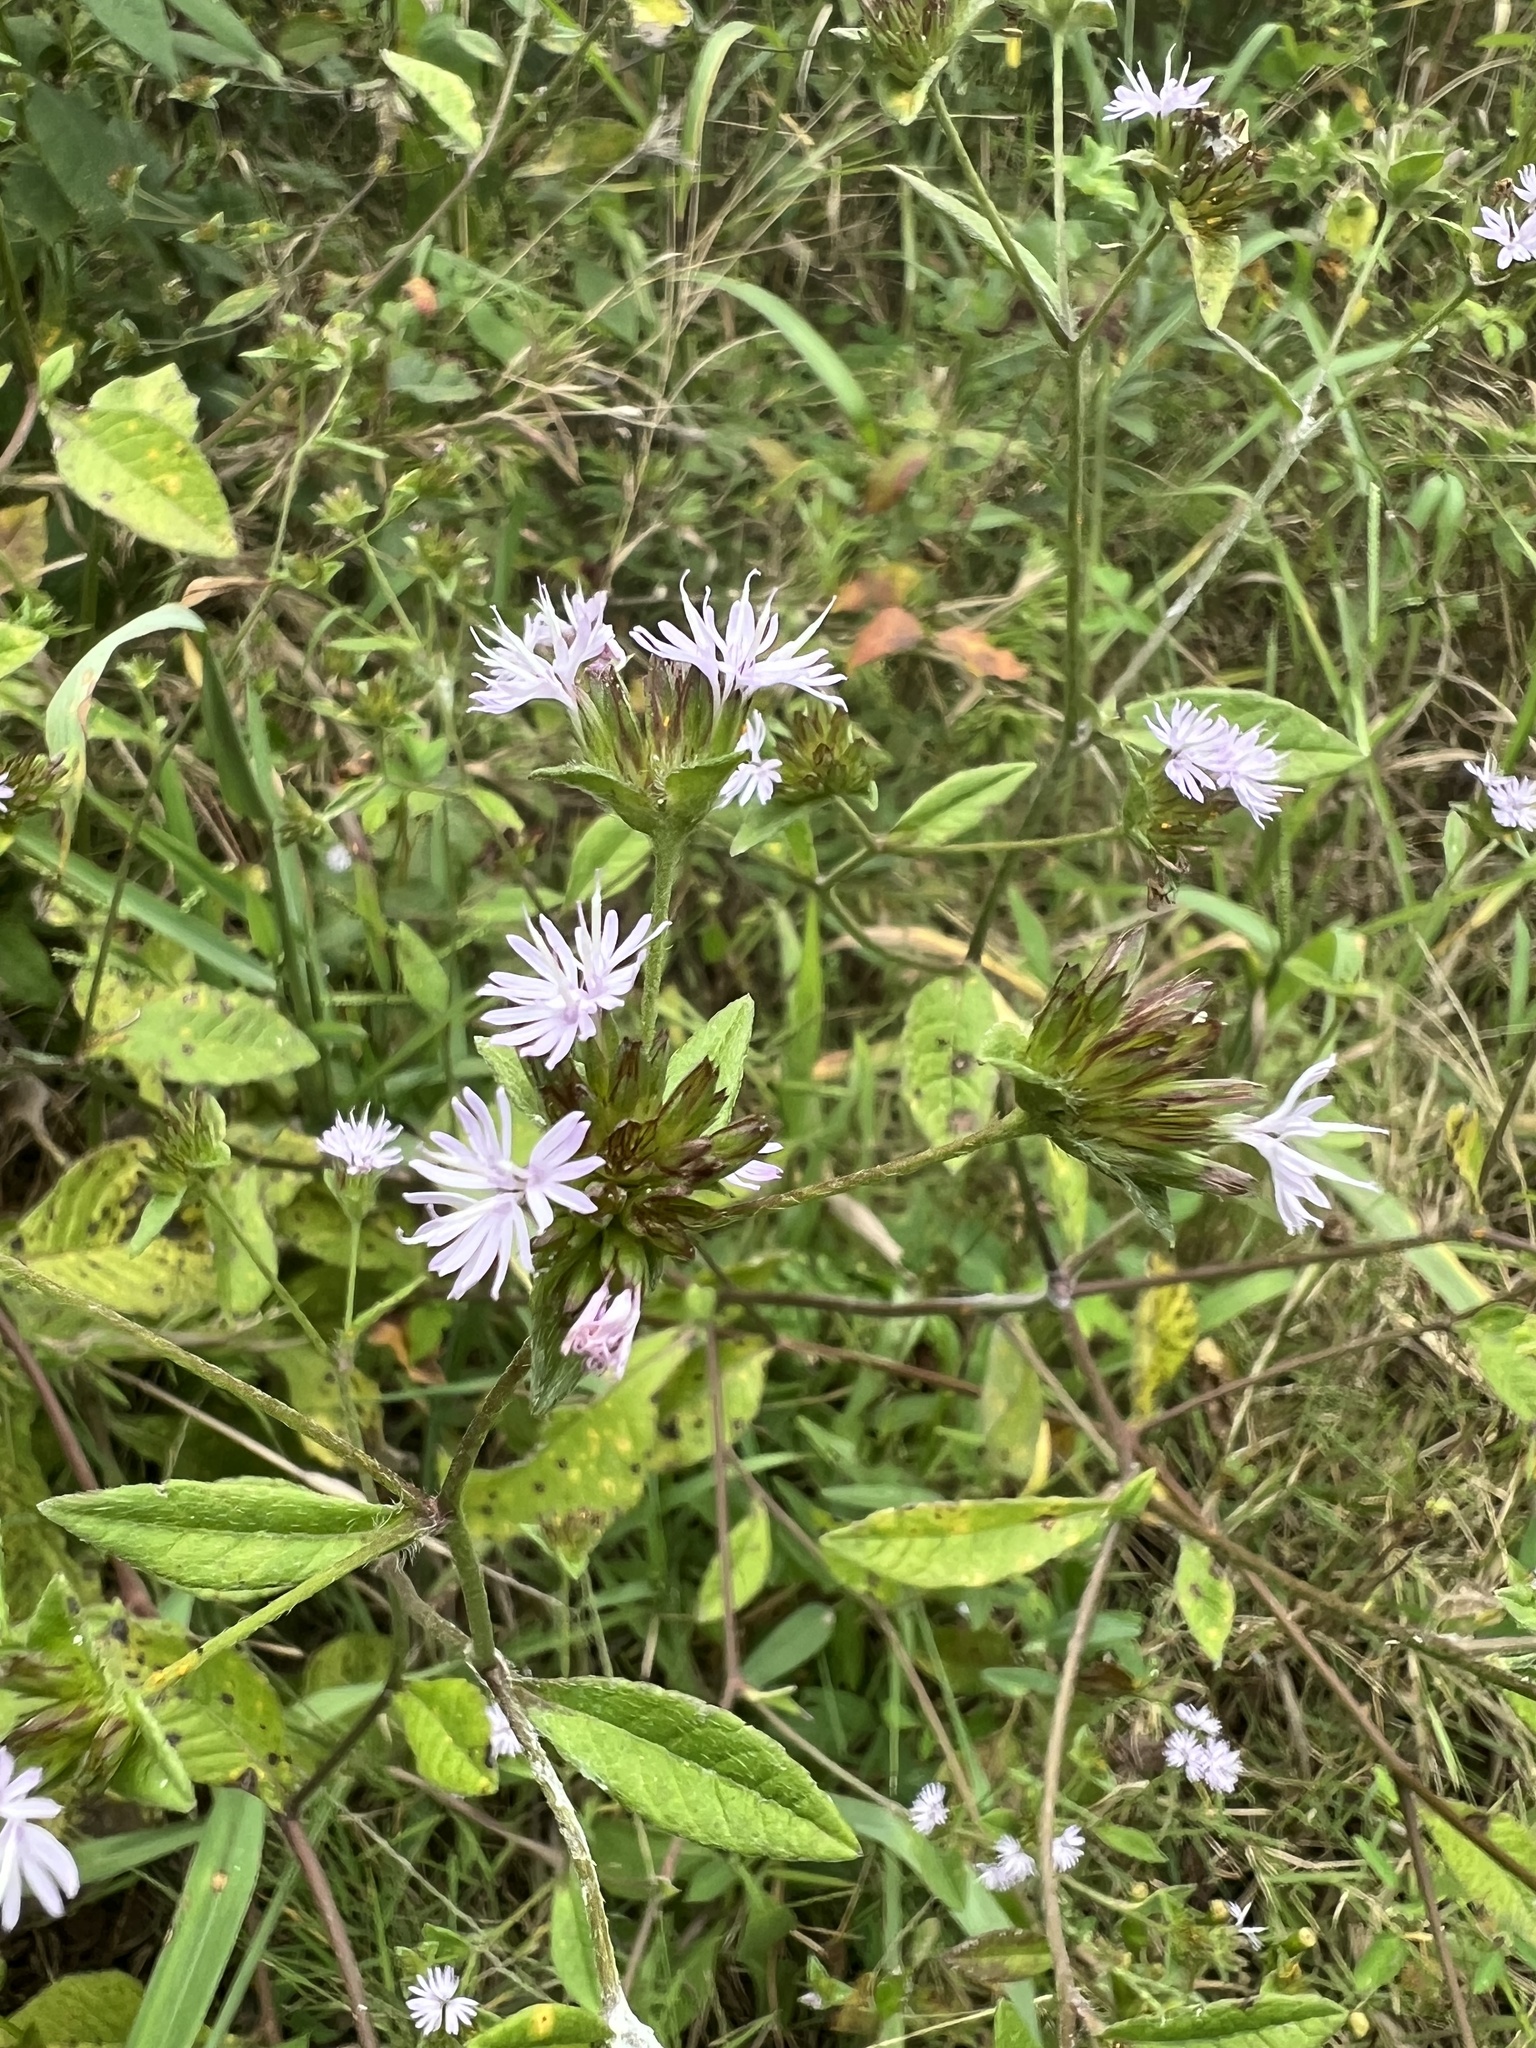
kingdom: Plantae
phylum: Tracheophyta
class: Magnoliopsida
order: Asterales
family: Asteraceae
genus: Elephantopus
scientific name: Elephantopus carolinianus
